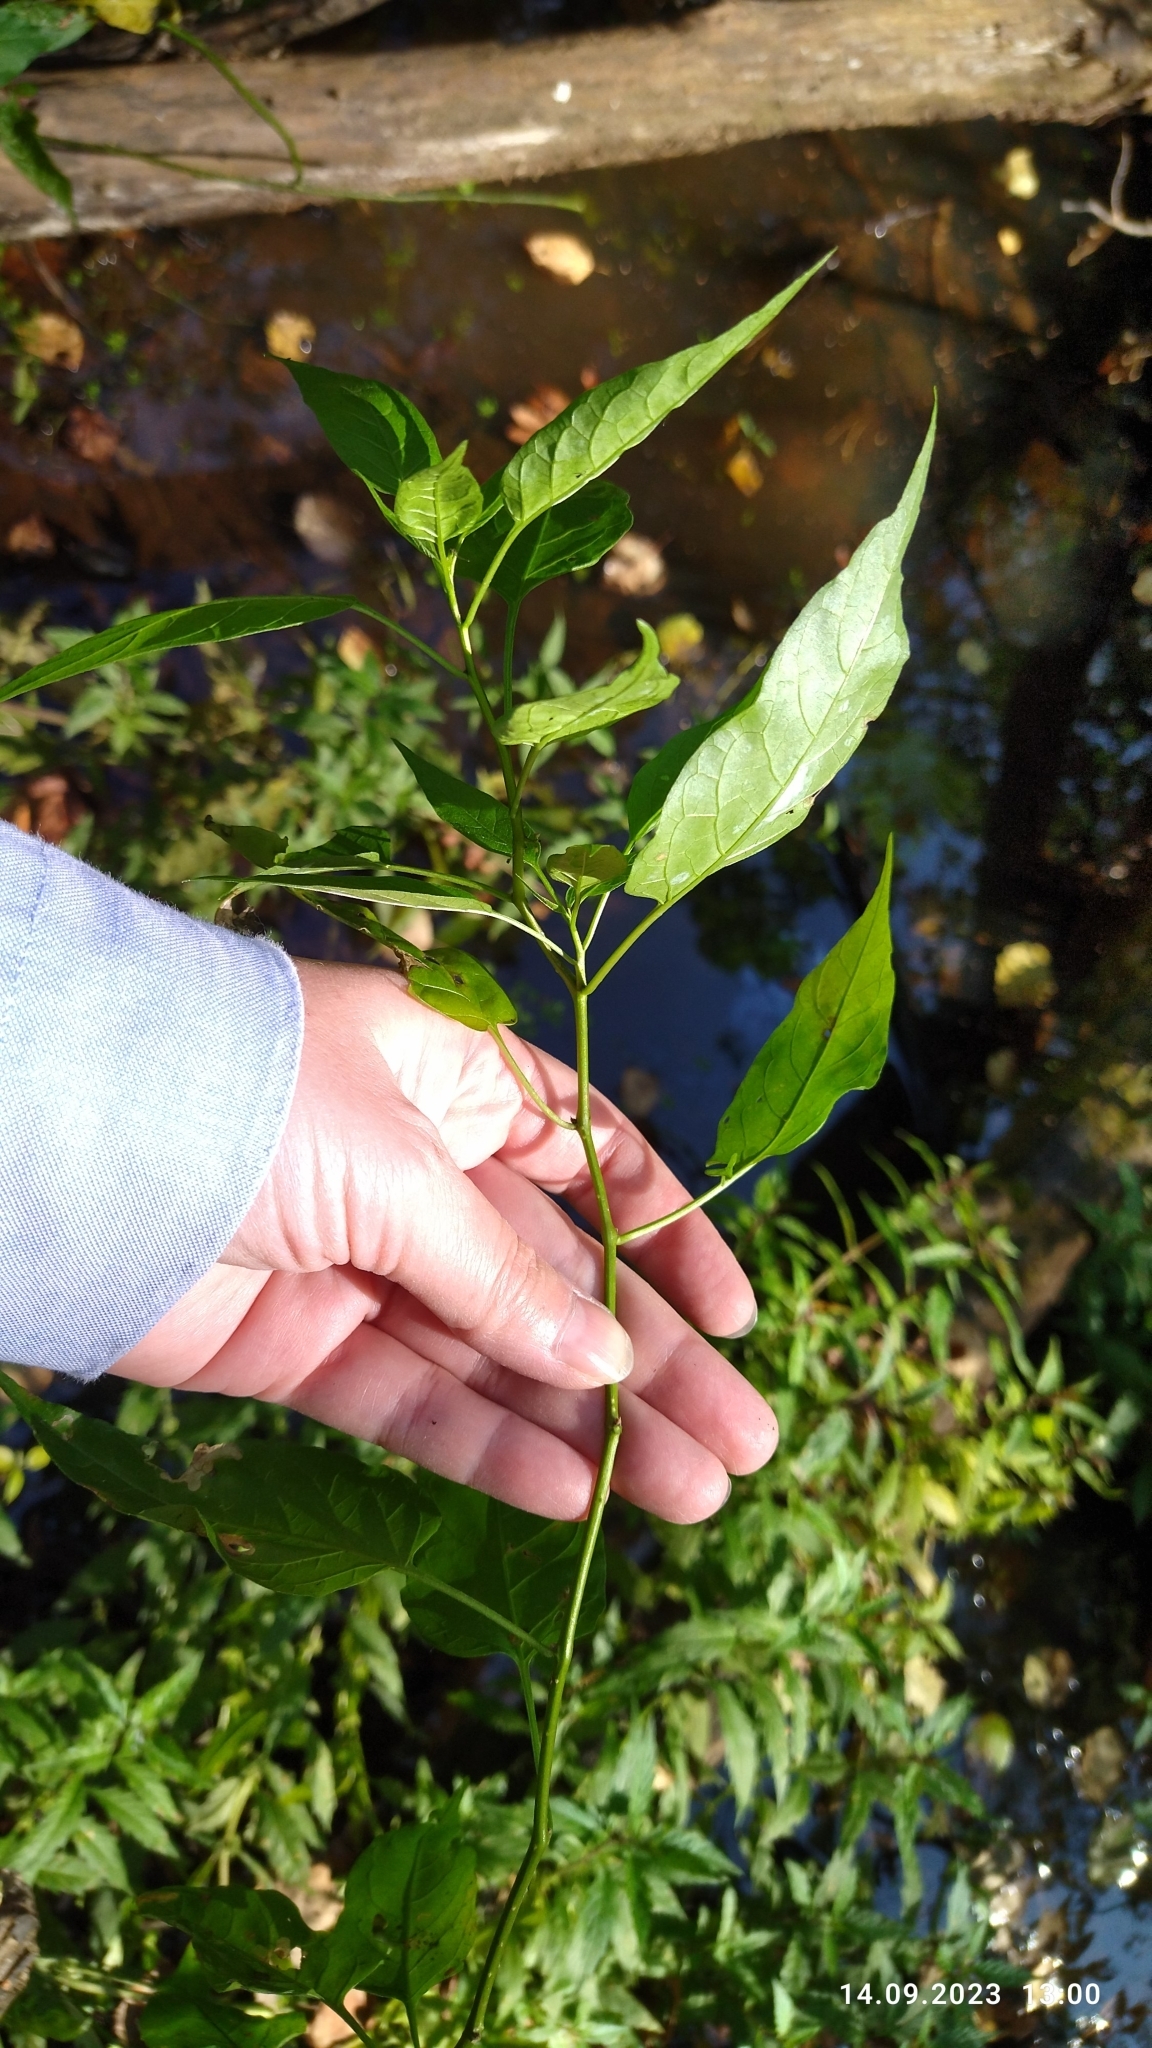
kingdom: Plantae
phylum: Tracheophyta
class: Magnoliopsida
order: Solanales
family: Solanaceae
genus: Solanum
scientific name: Solanum dulcamara
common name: Climbing nightshade
